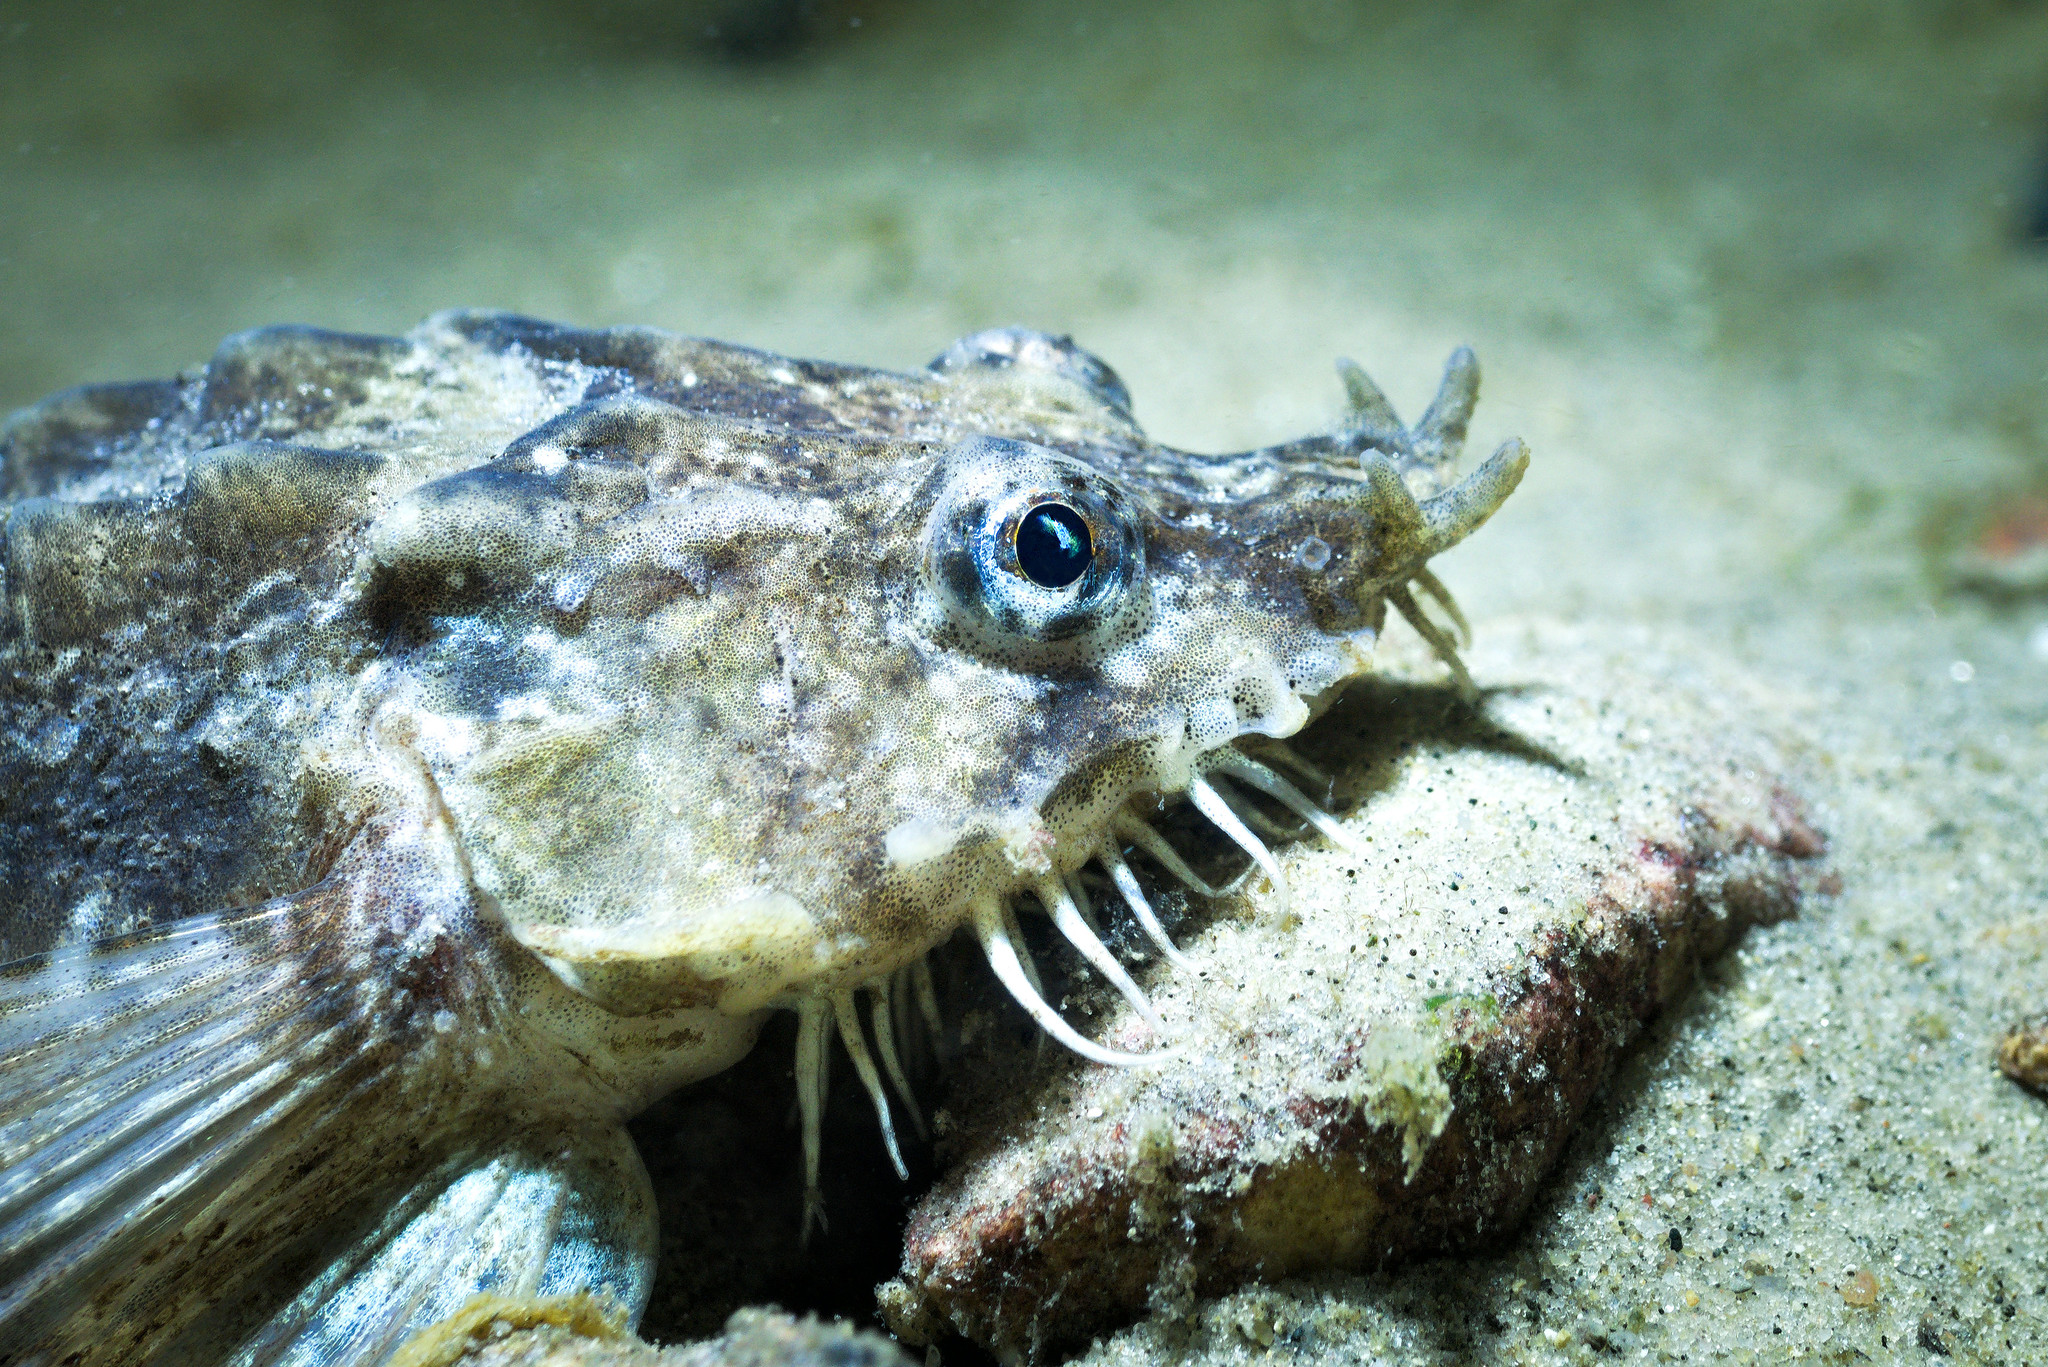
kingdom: Animalia
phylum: Chordata
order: Scorpaeniformes
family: Agonidae
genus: Agonus
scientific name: Agonus cataphractus
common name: Pogge
